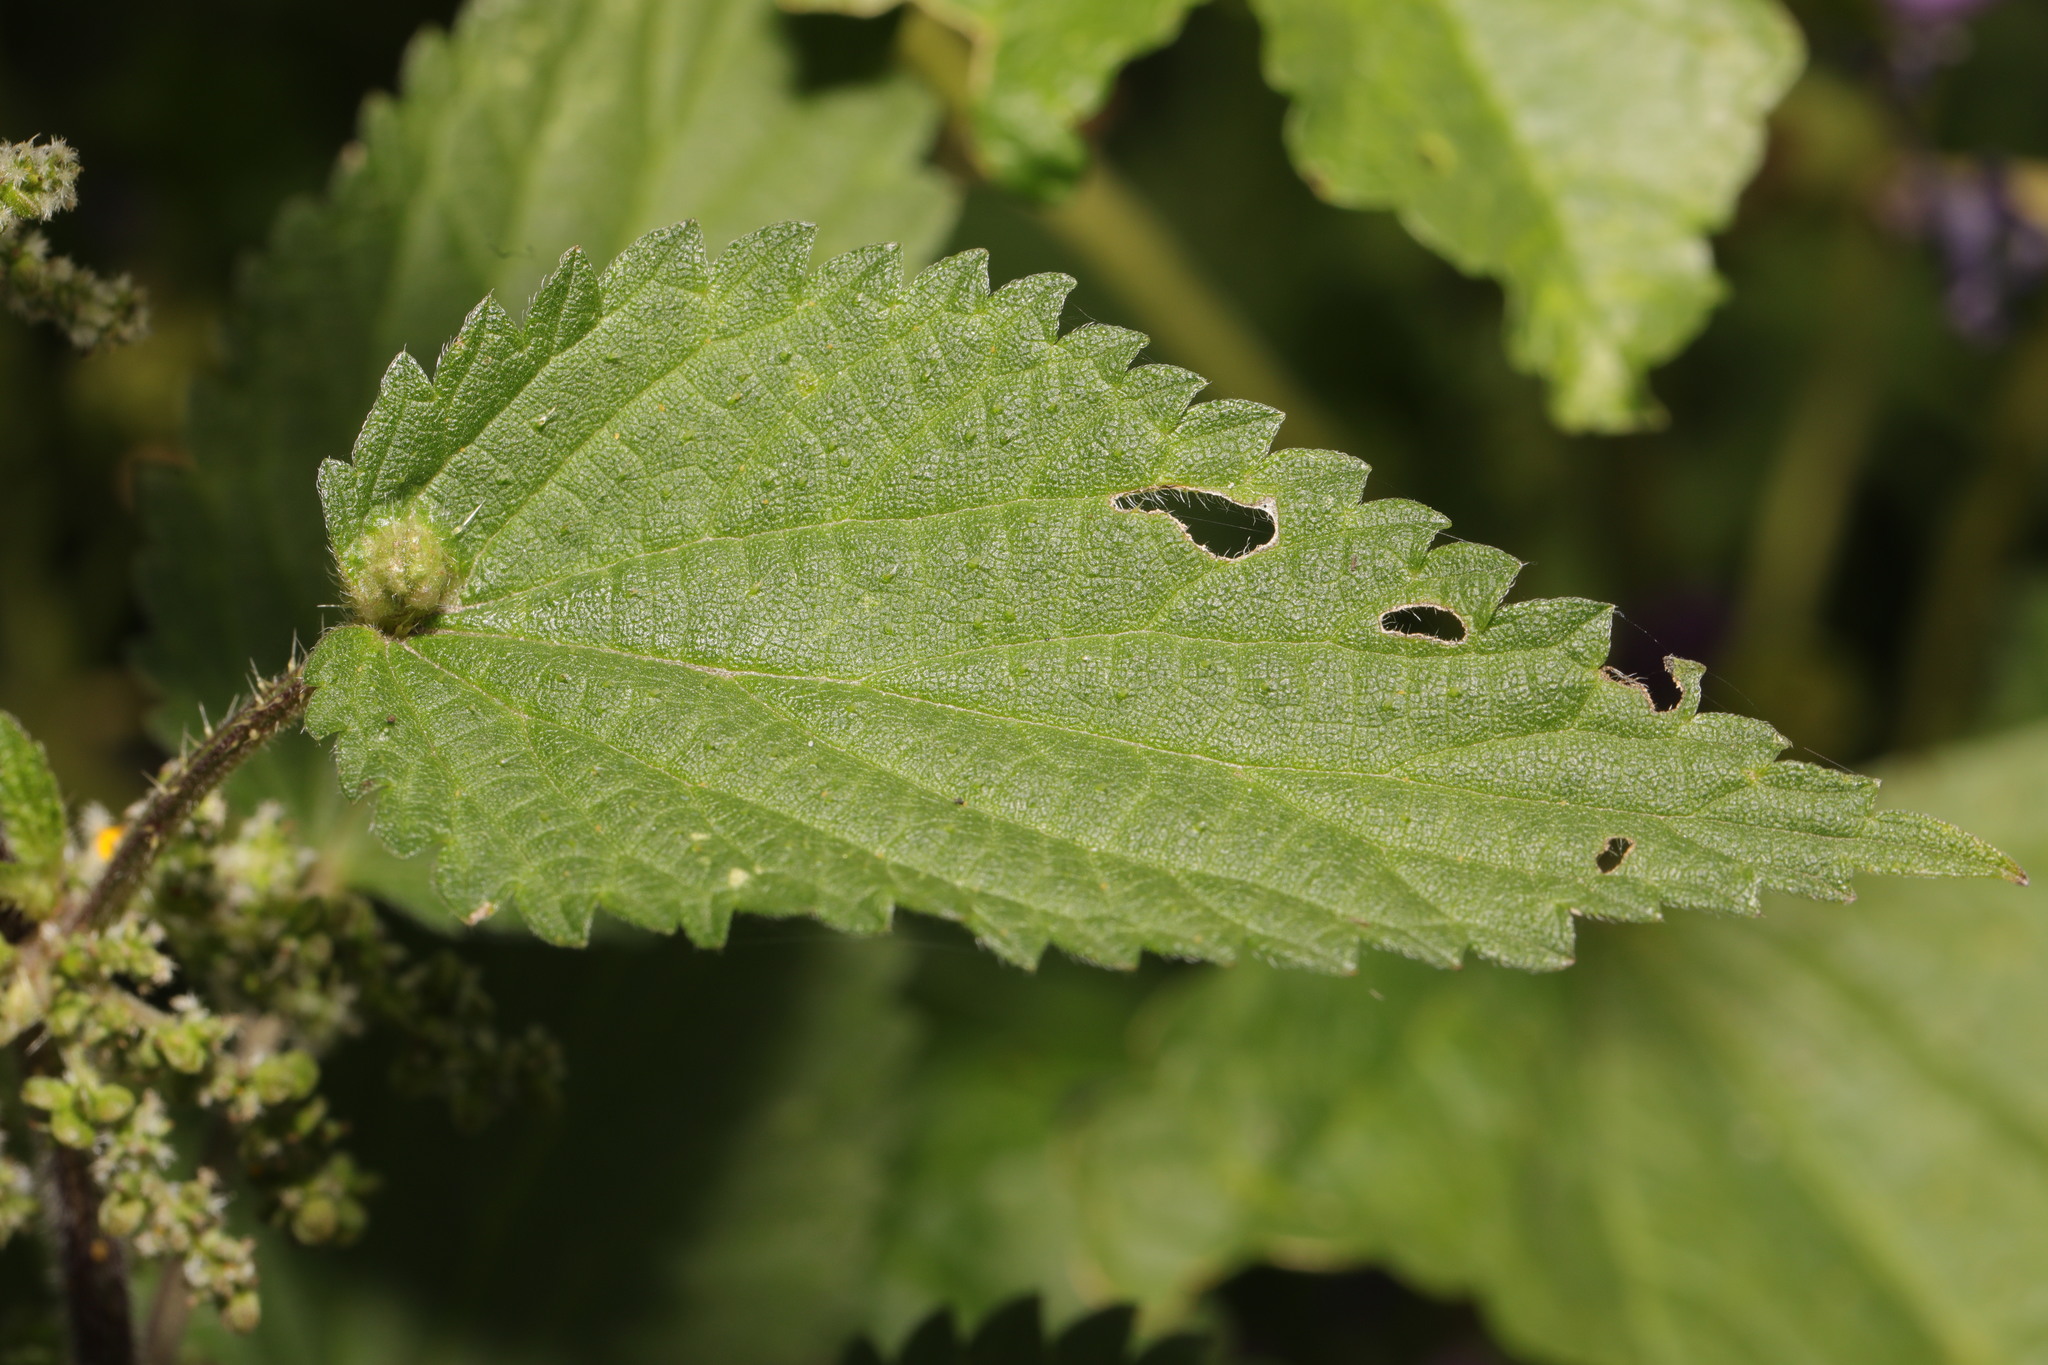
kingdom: Animalia
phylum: Arthropoda
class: Insecta
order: Diptera
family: Cecidomyiidae
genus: Dasineura
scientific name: Dasineura urticae
